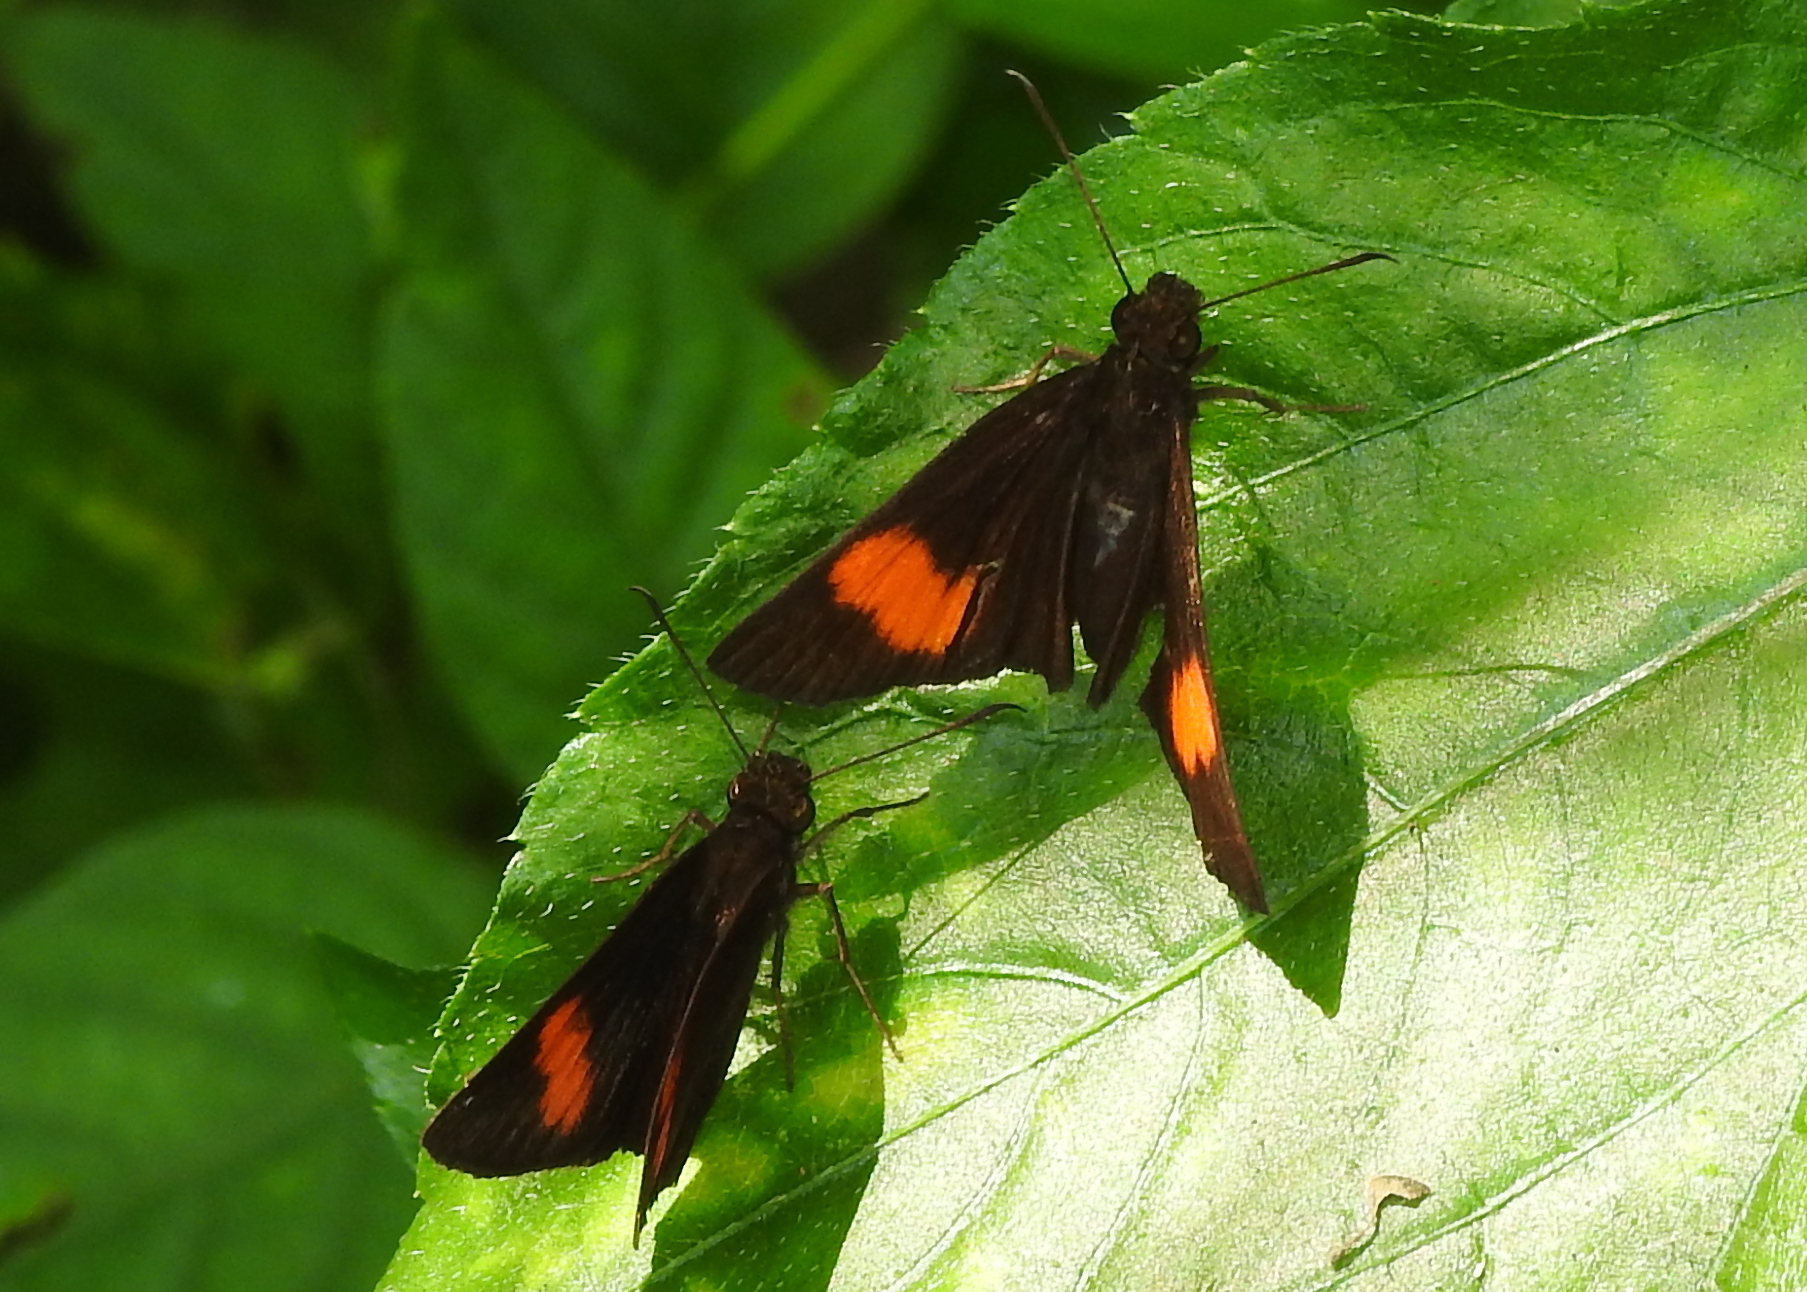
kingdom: Animalia
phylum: Arthropoda
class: Insecta
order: Lepidoptera
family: Hesperiidae
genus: Koruthaialos
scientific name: Koruthaialos sindu
